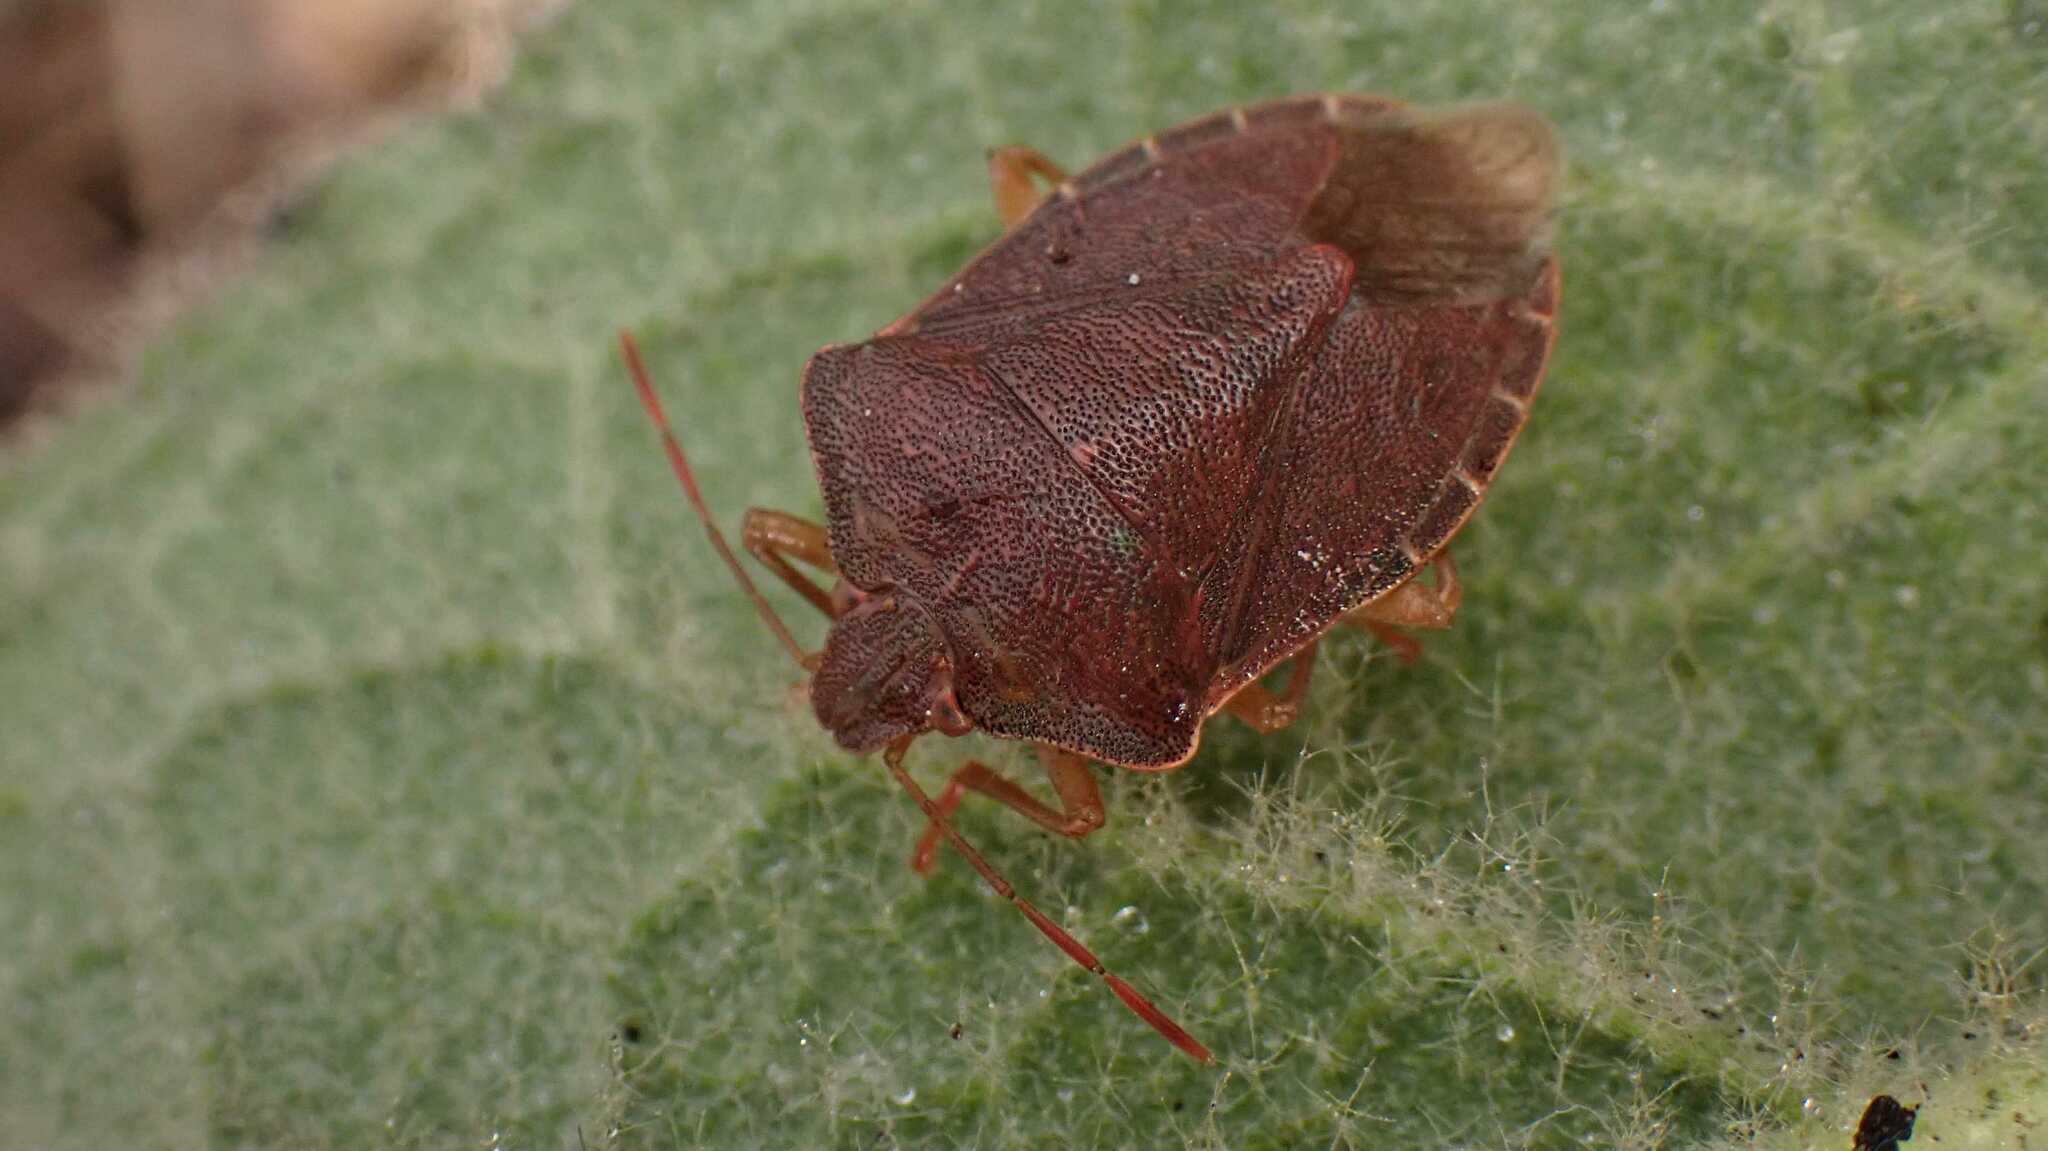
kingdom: Animalia
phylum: Arthropoda
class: Insecta
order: Hemiptera
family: Pentatomidae
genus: Palomena
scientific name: Palomena prasina
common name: Green shieldbug
